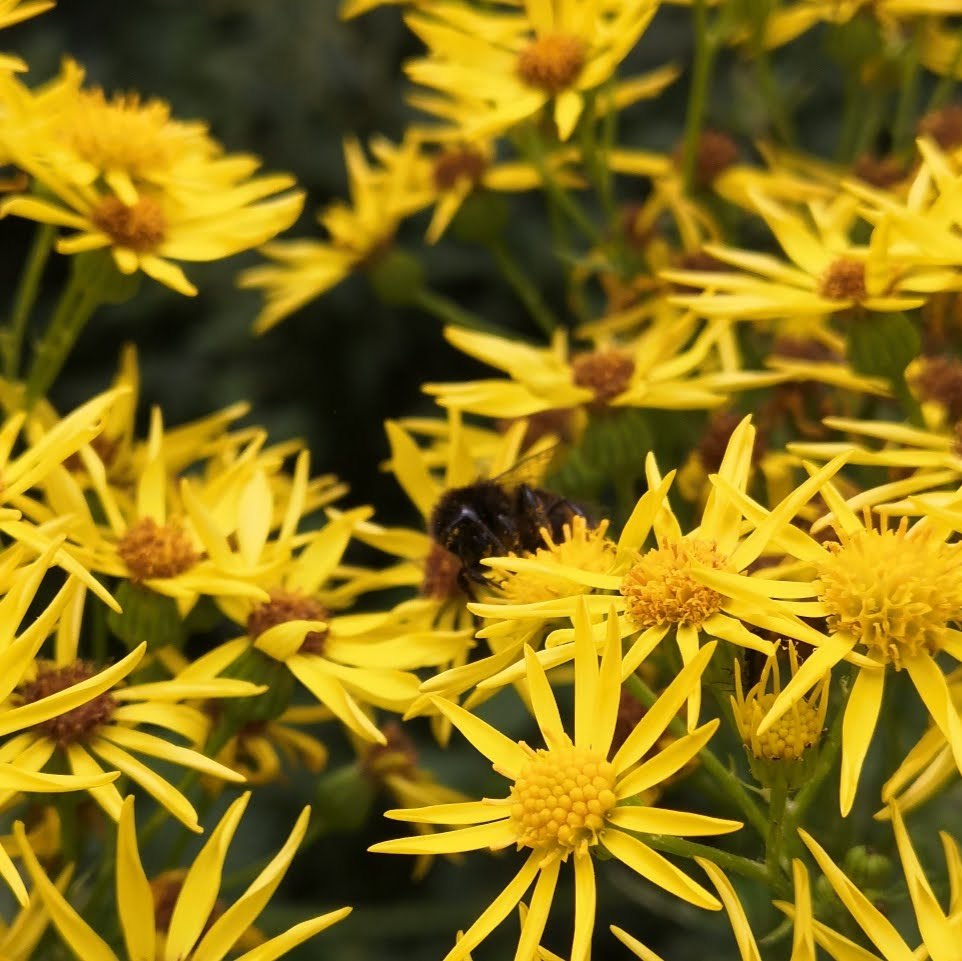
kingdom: Animalia
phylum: Arthropoda
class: Insecta
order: Hymenoptera
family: Apidae
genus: Bombus
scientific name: Bombus lapidarius
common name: Large red-tailed humble-bee
